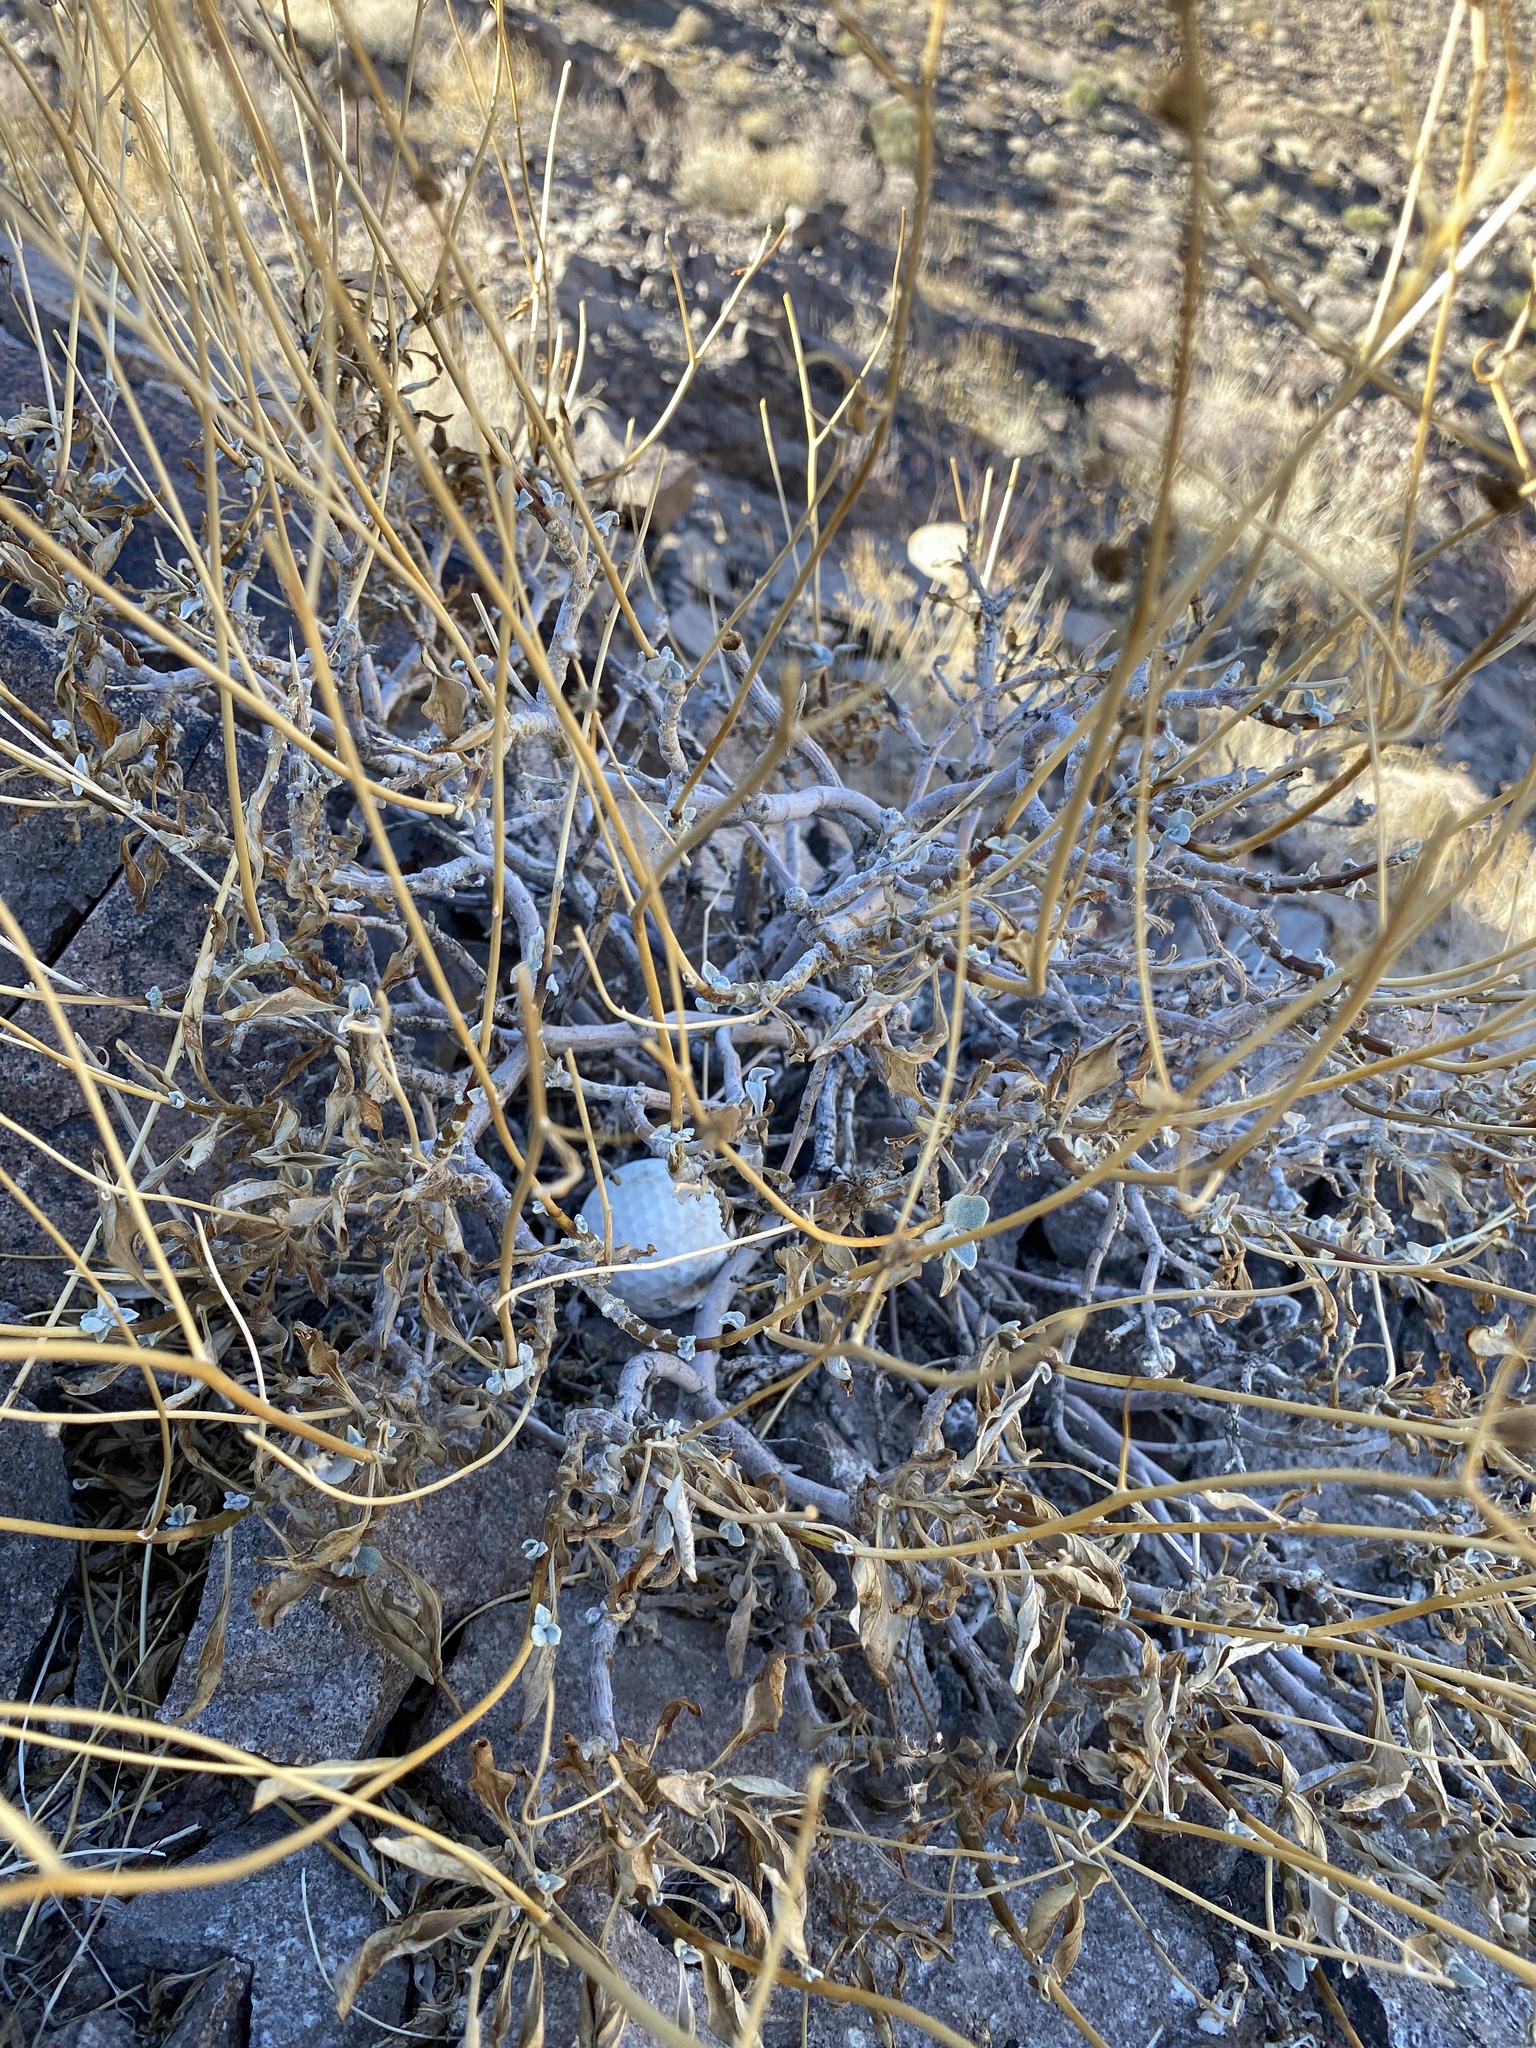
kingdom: Plantae
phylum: Tracheophyta
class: Magnoliopsida
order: Asterales
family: Asteraceae
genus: Encelia
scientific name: Encelia farinosa
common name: Brittlebush
